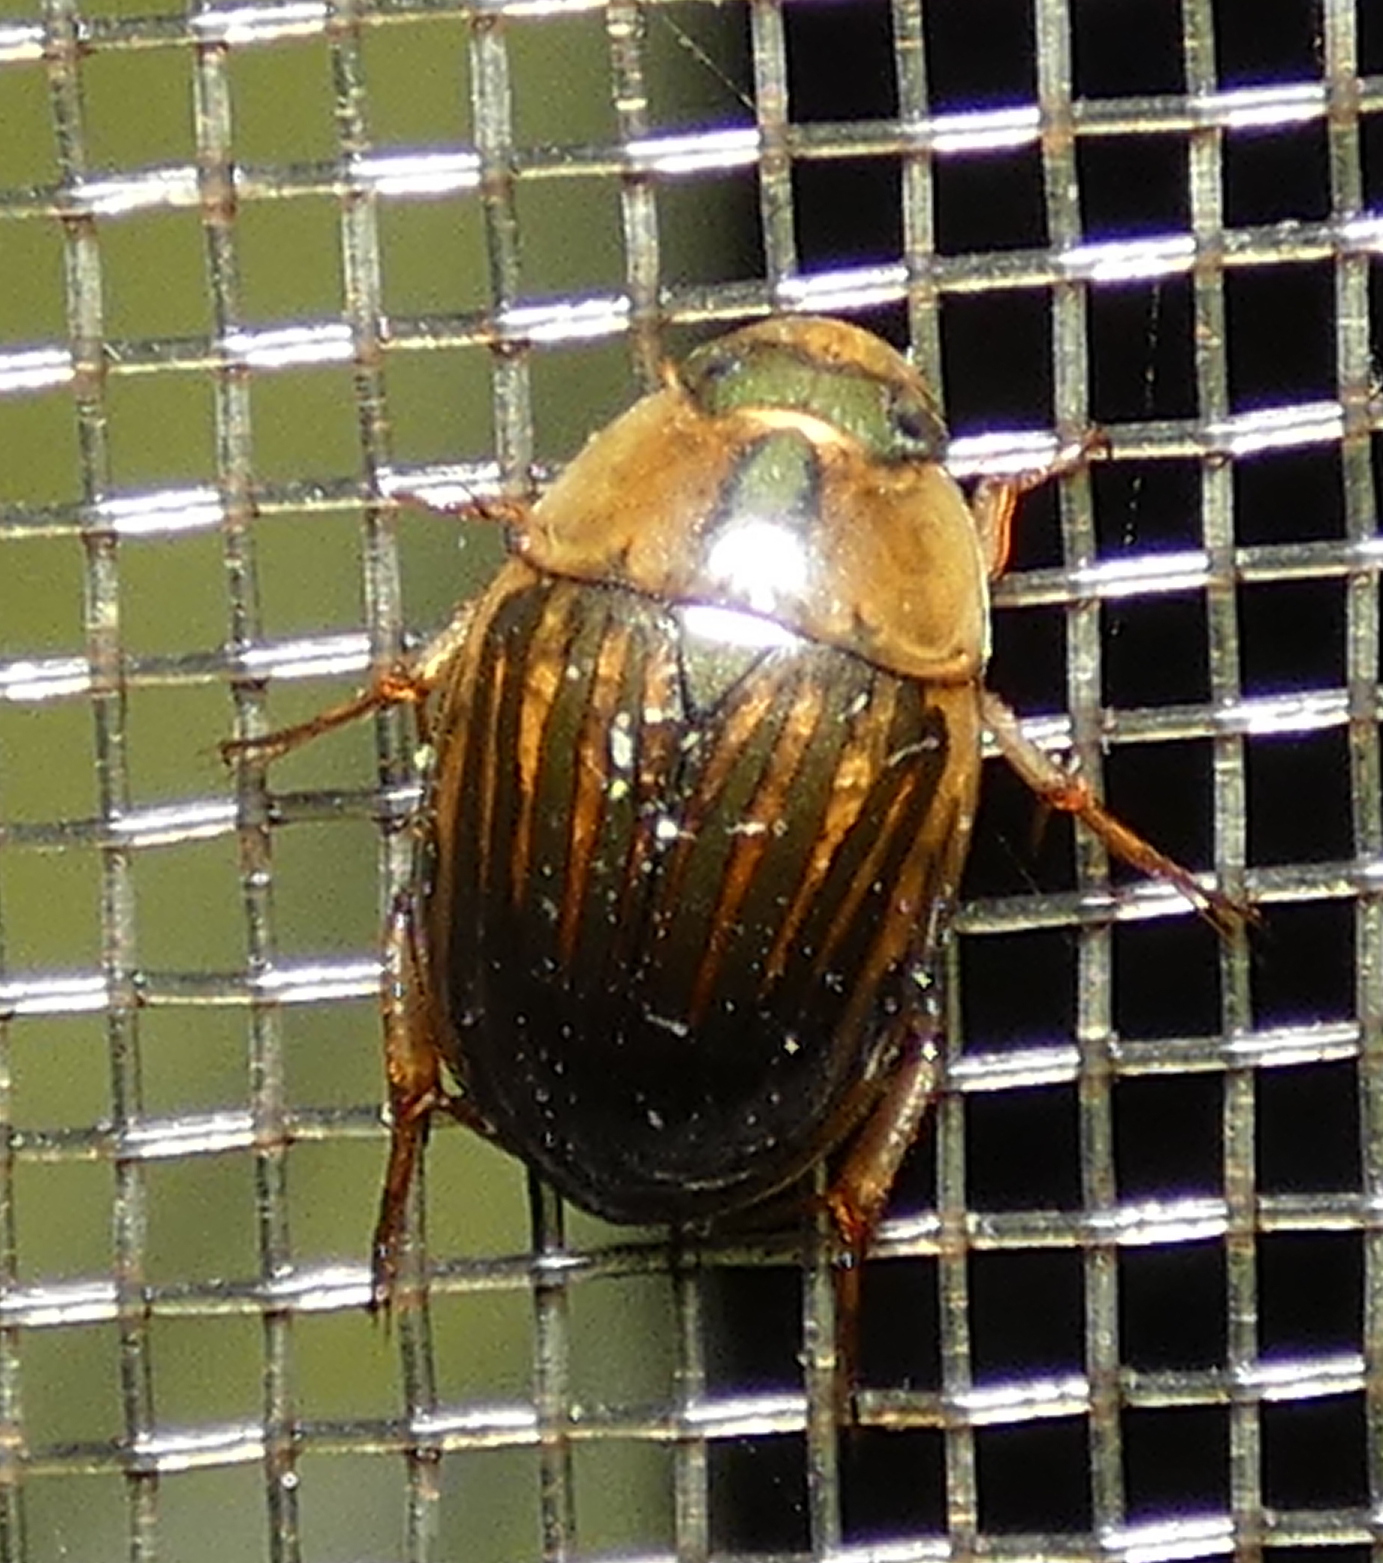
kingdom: Animalia
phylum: Arthropoda
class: Insecta
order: Coleoptera
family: Hydrophilidae
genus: Tropisternus
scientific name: Tropisternus collaris
